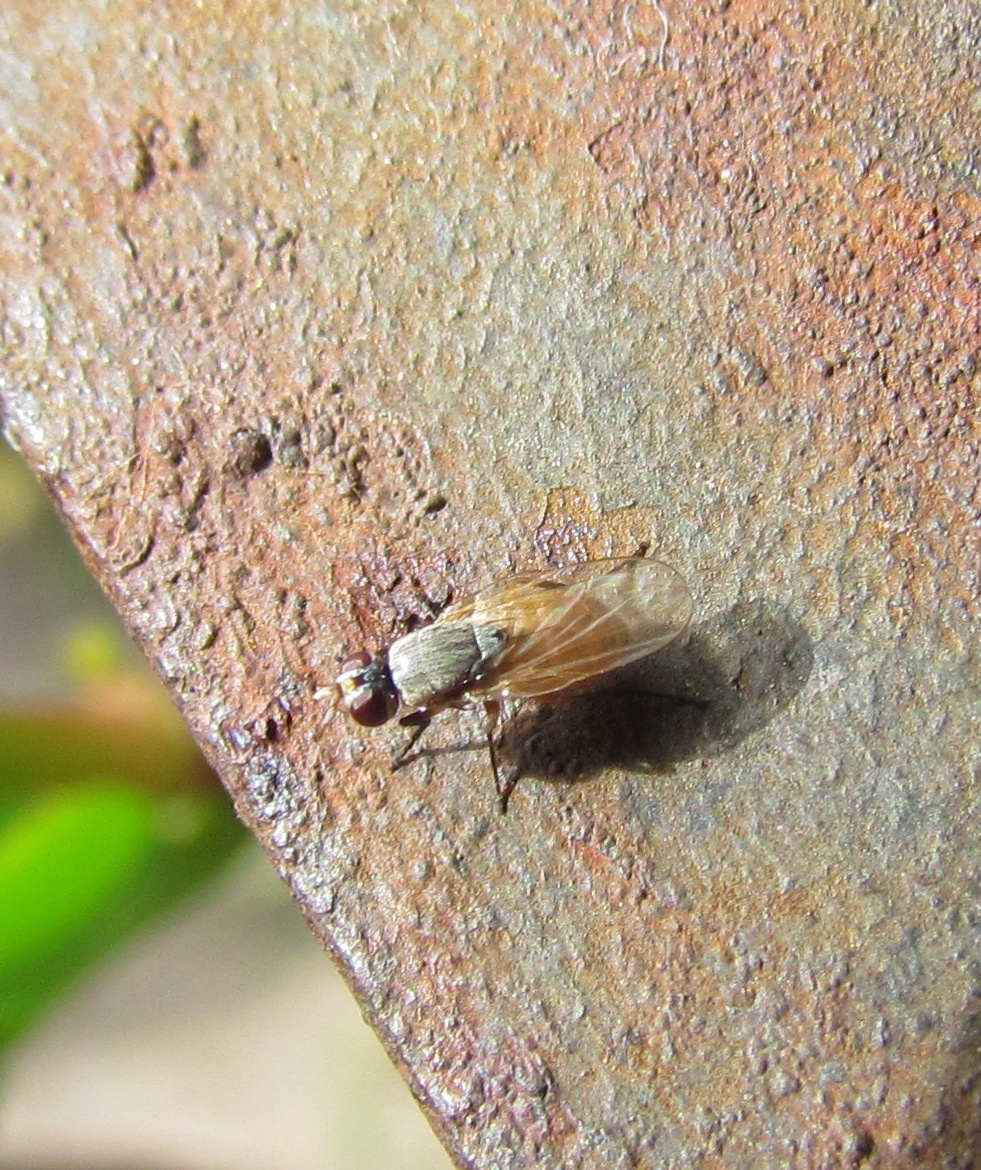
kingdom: Animalia
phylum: Arthropoda
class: Insecta
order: Diptera
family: Muscidae
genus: Atherigona
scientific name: Atherigona reversura
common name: Bermudagrass stem maggot
